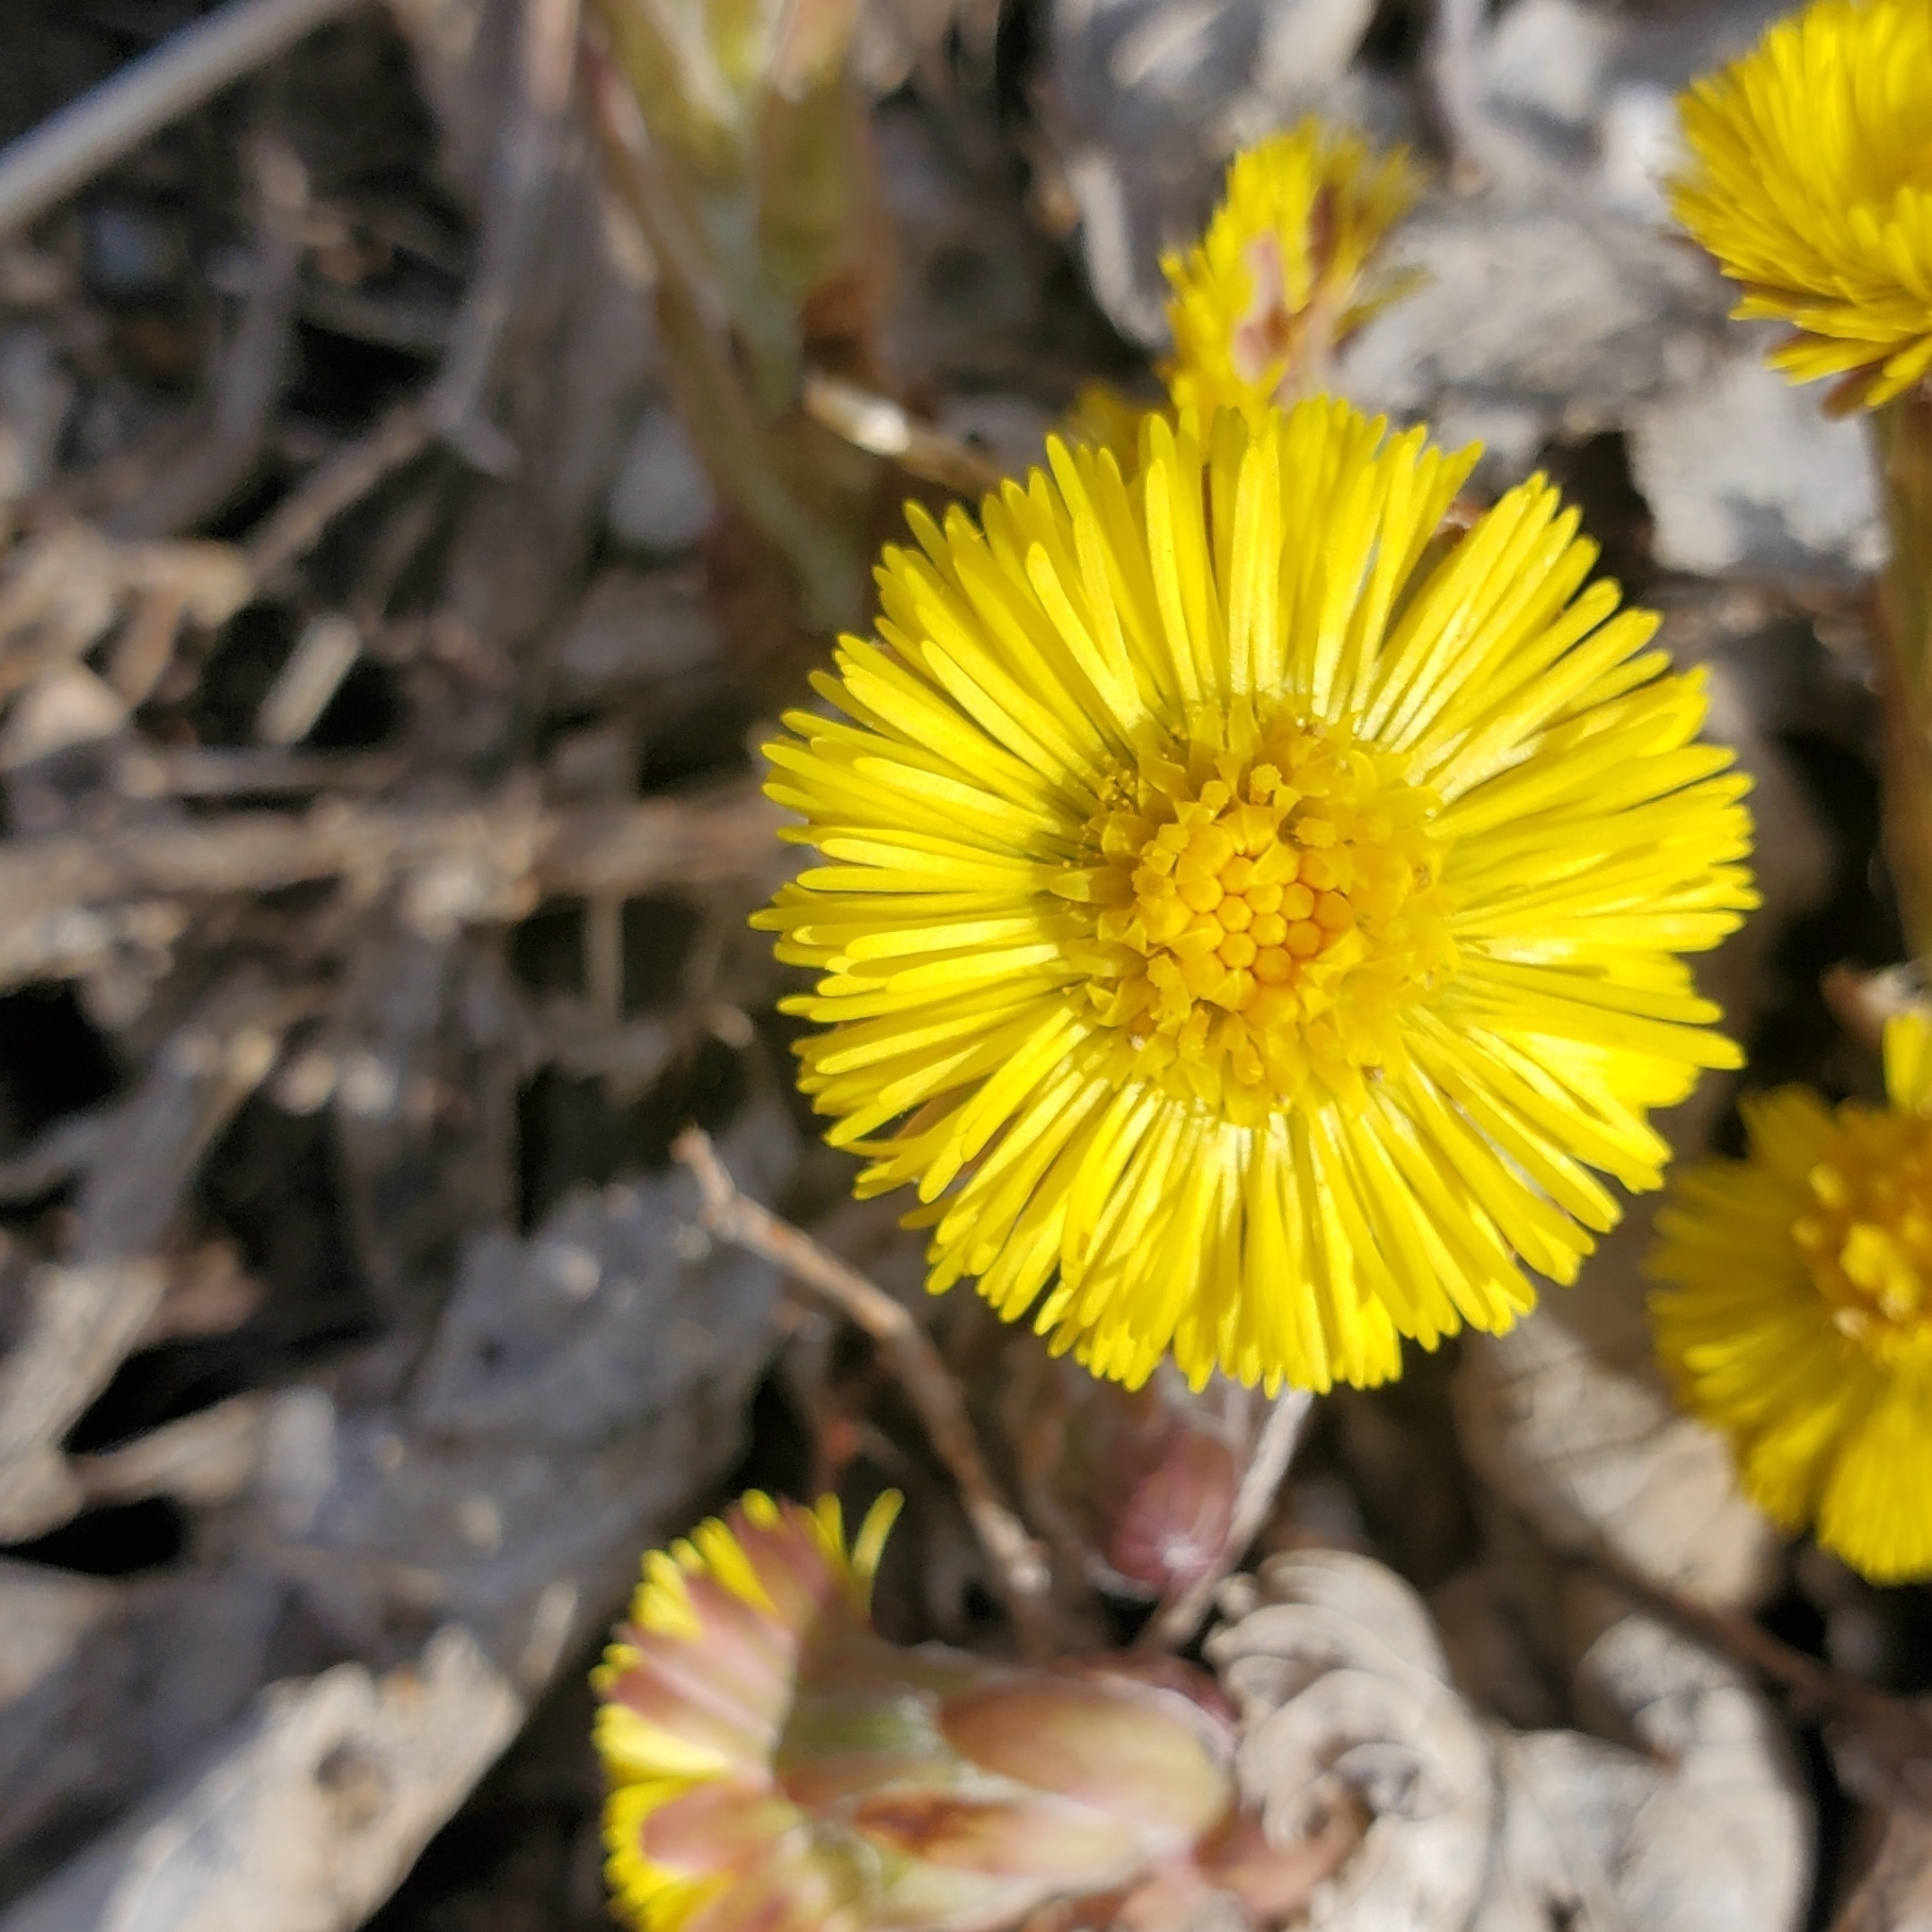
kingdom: Plantae
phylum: Tracheophyta
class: Magnoliopsida
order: Asterales
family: Asteraceae
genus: Tussilago
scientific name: Tussilago farfara
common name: Coltsfoot
